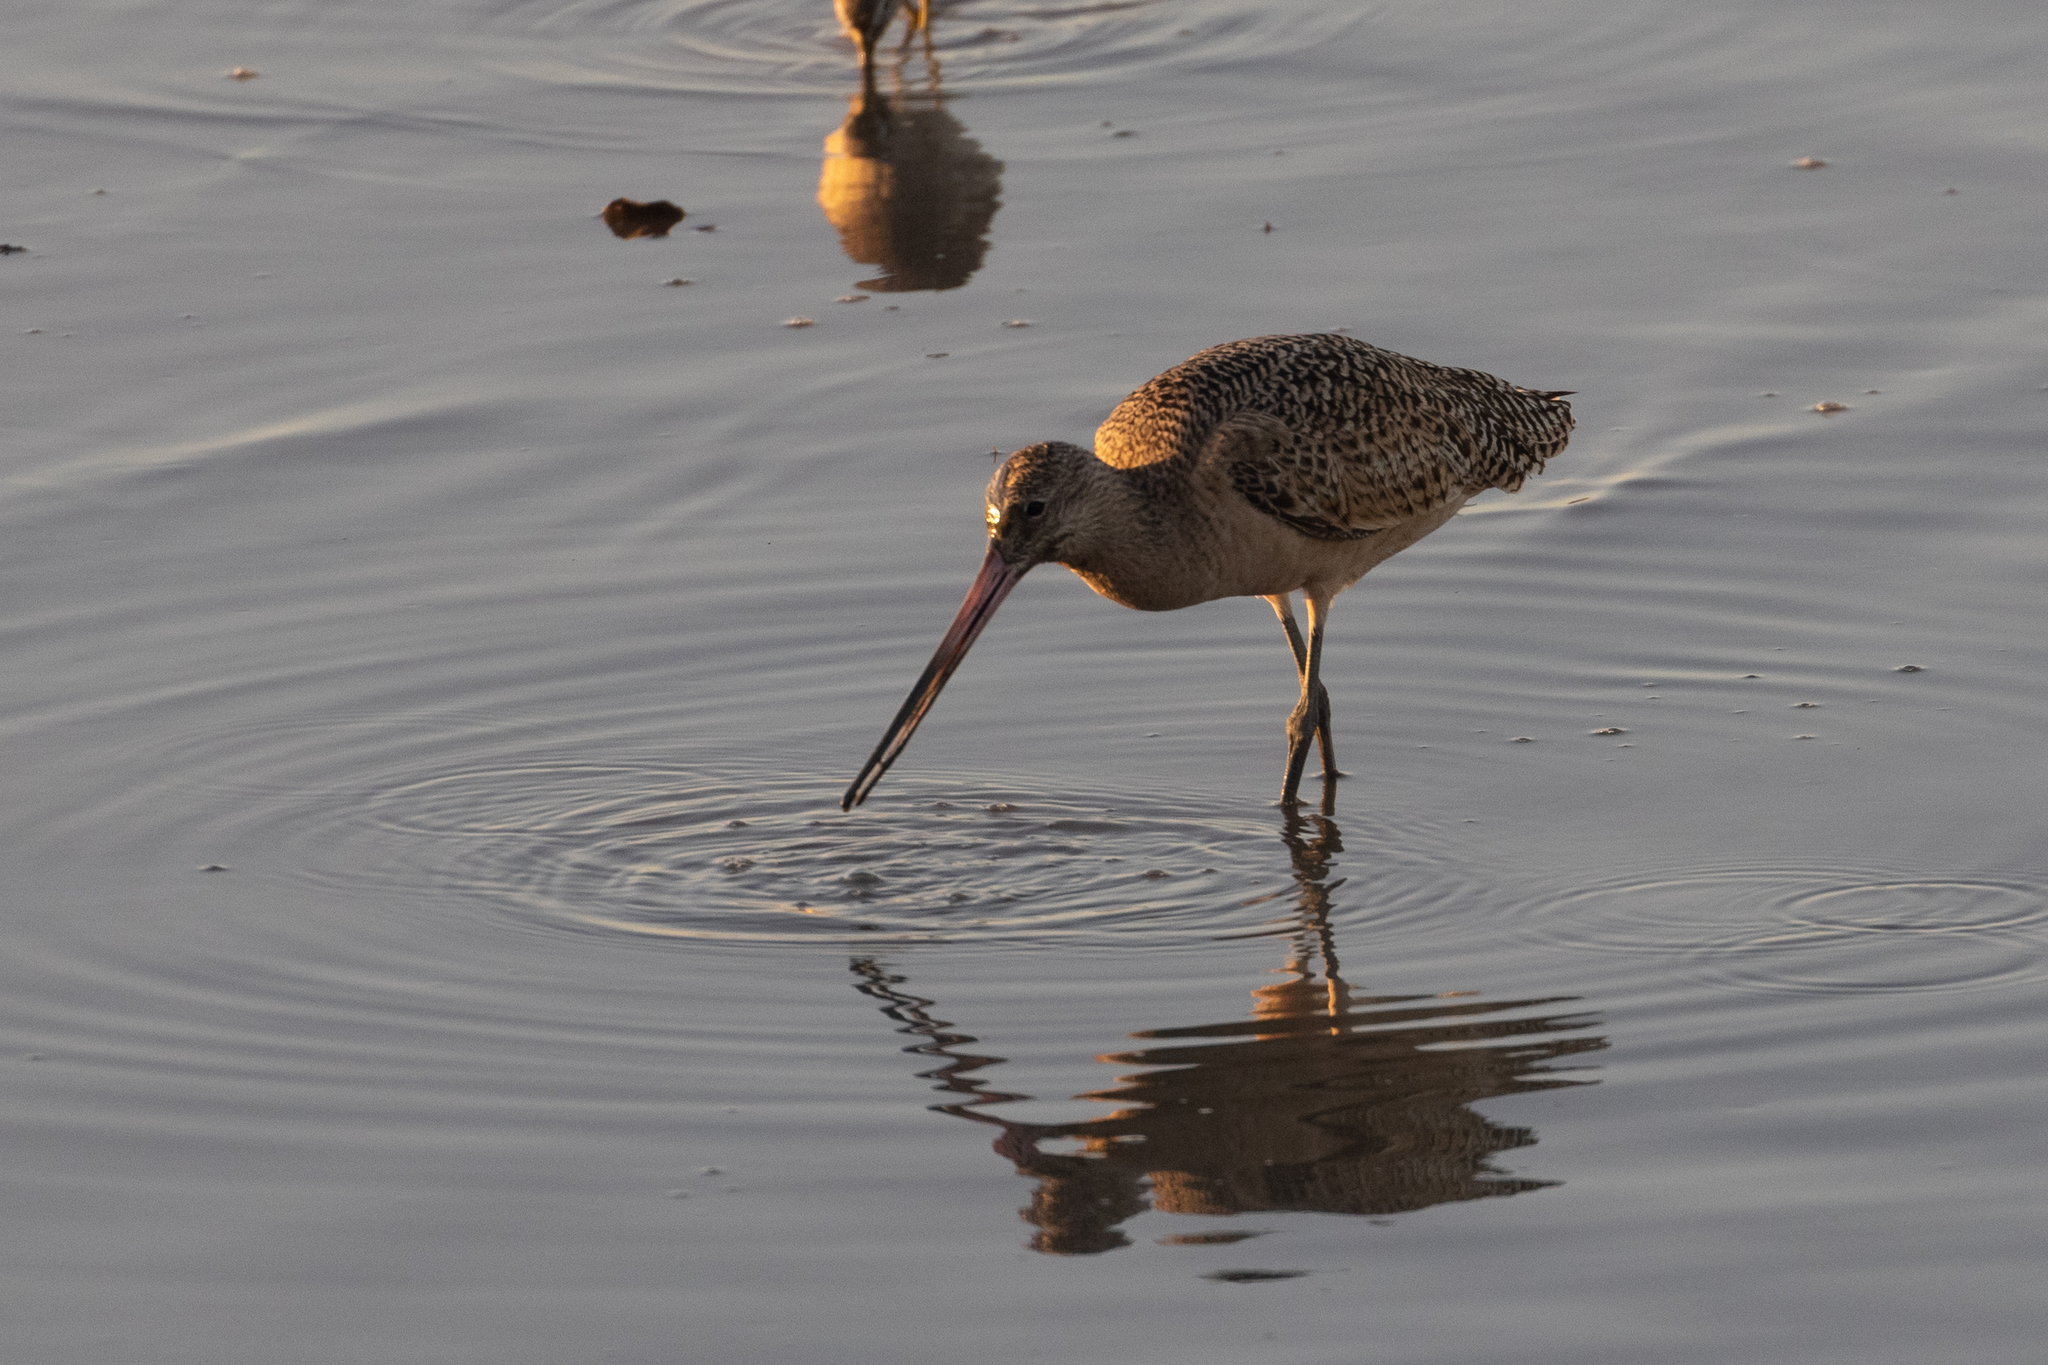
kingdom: Animalia
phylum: Chordata
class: Aves
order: Charadriiformes
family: Scolopacidae
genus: Limosa
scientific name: Limosa fedoa
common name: Marbled godwit
